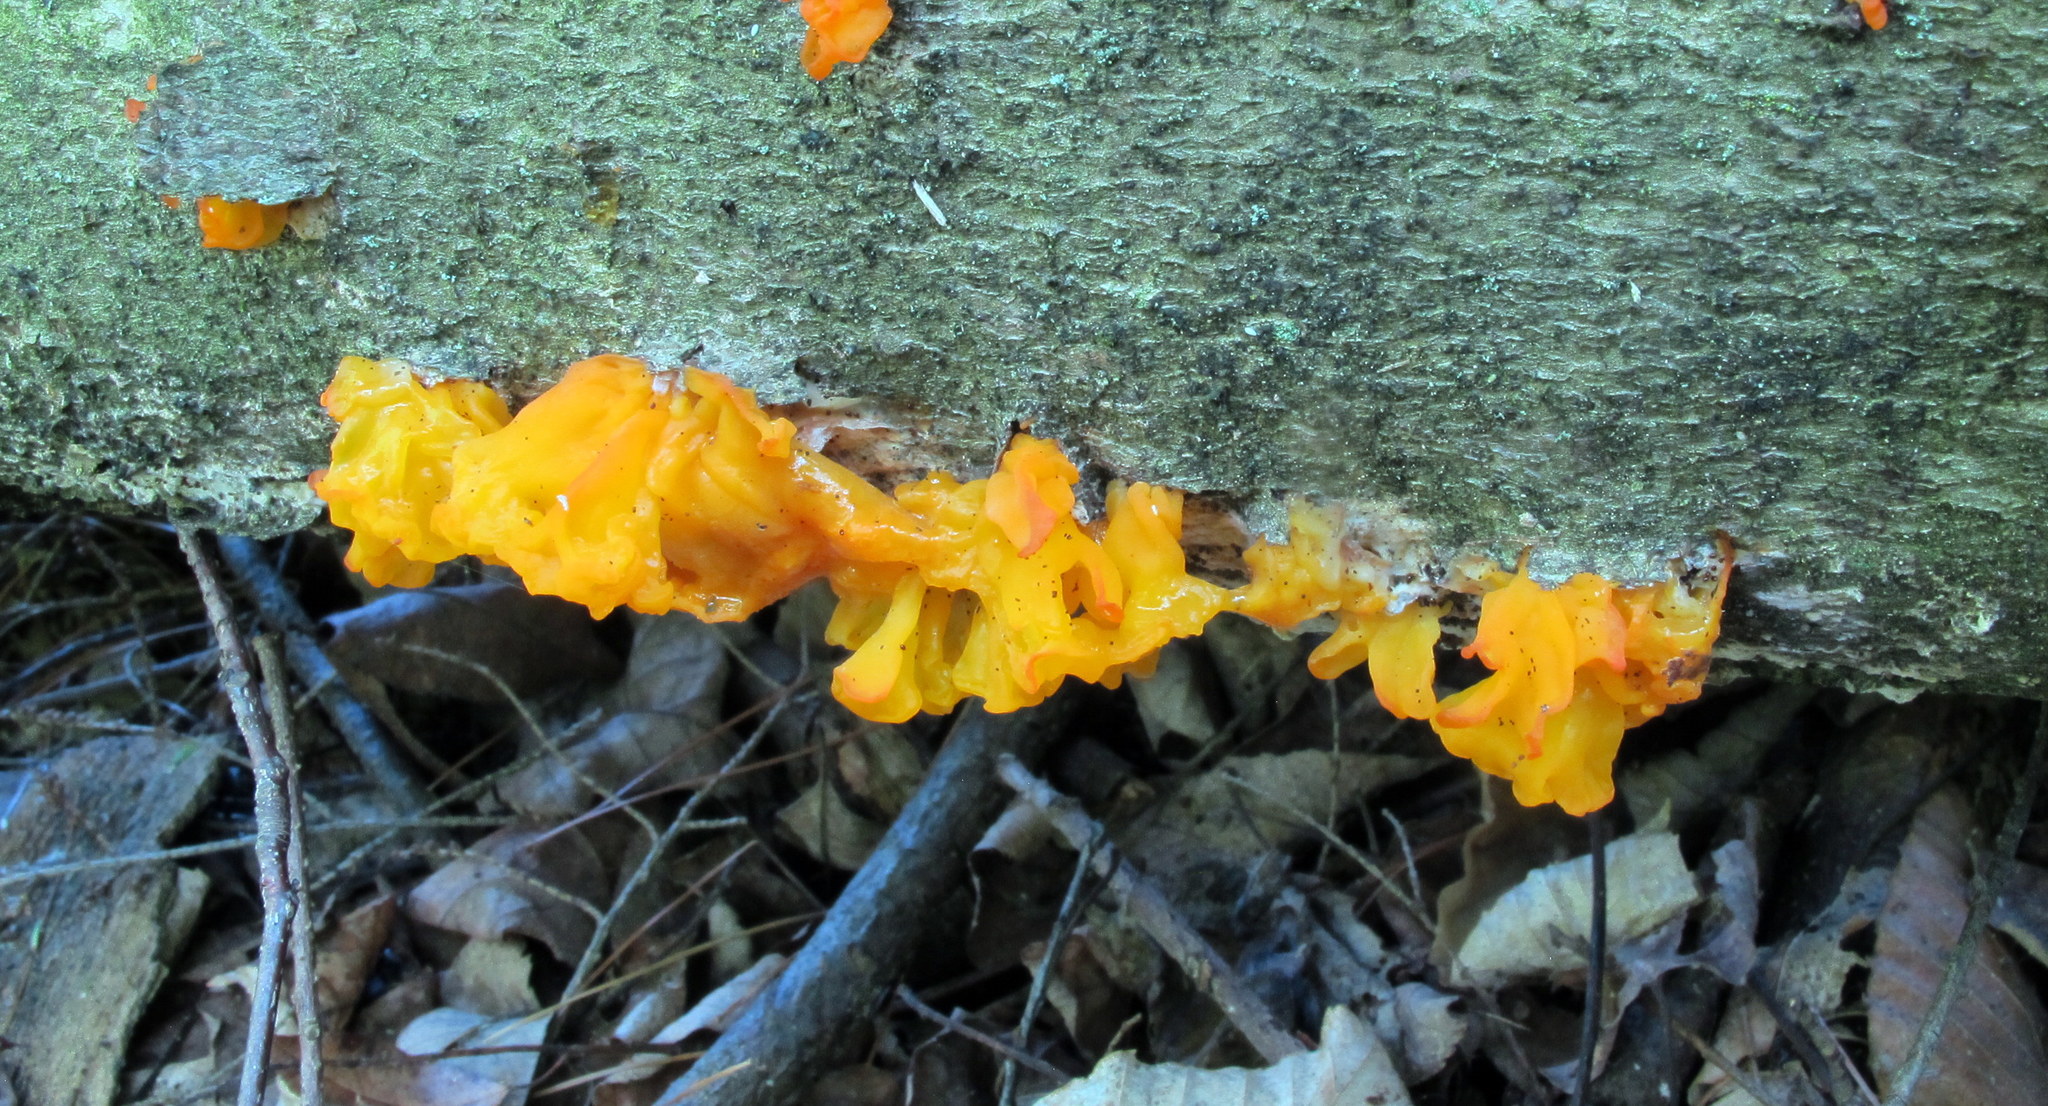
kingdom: Fungi
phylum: Basidiomycota
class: Tremellomycetes
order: Tremellales
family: Tremellaceae
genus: Tremella
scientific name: Tremella mesenterica
